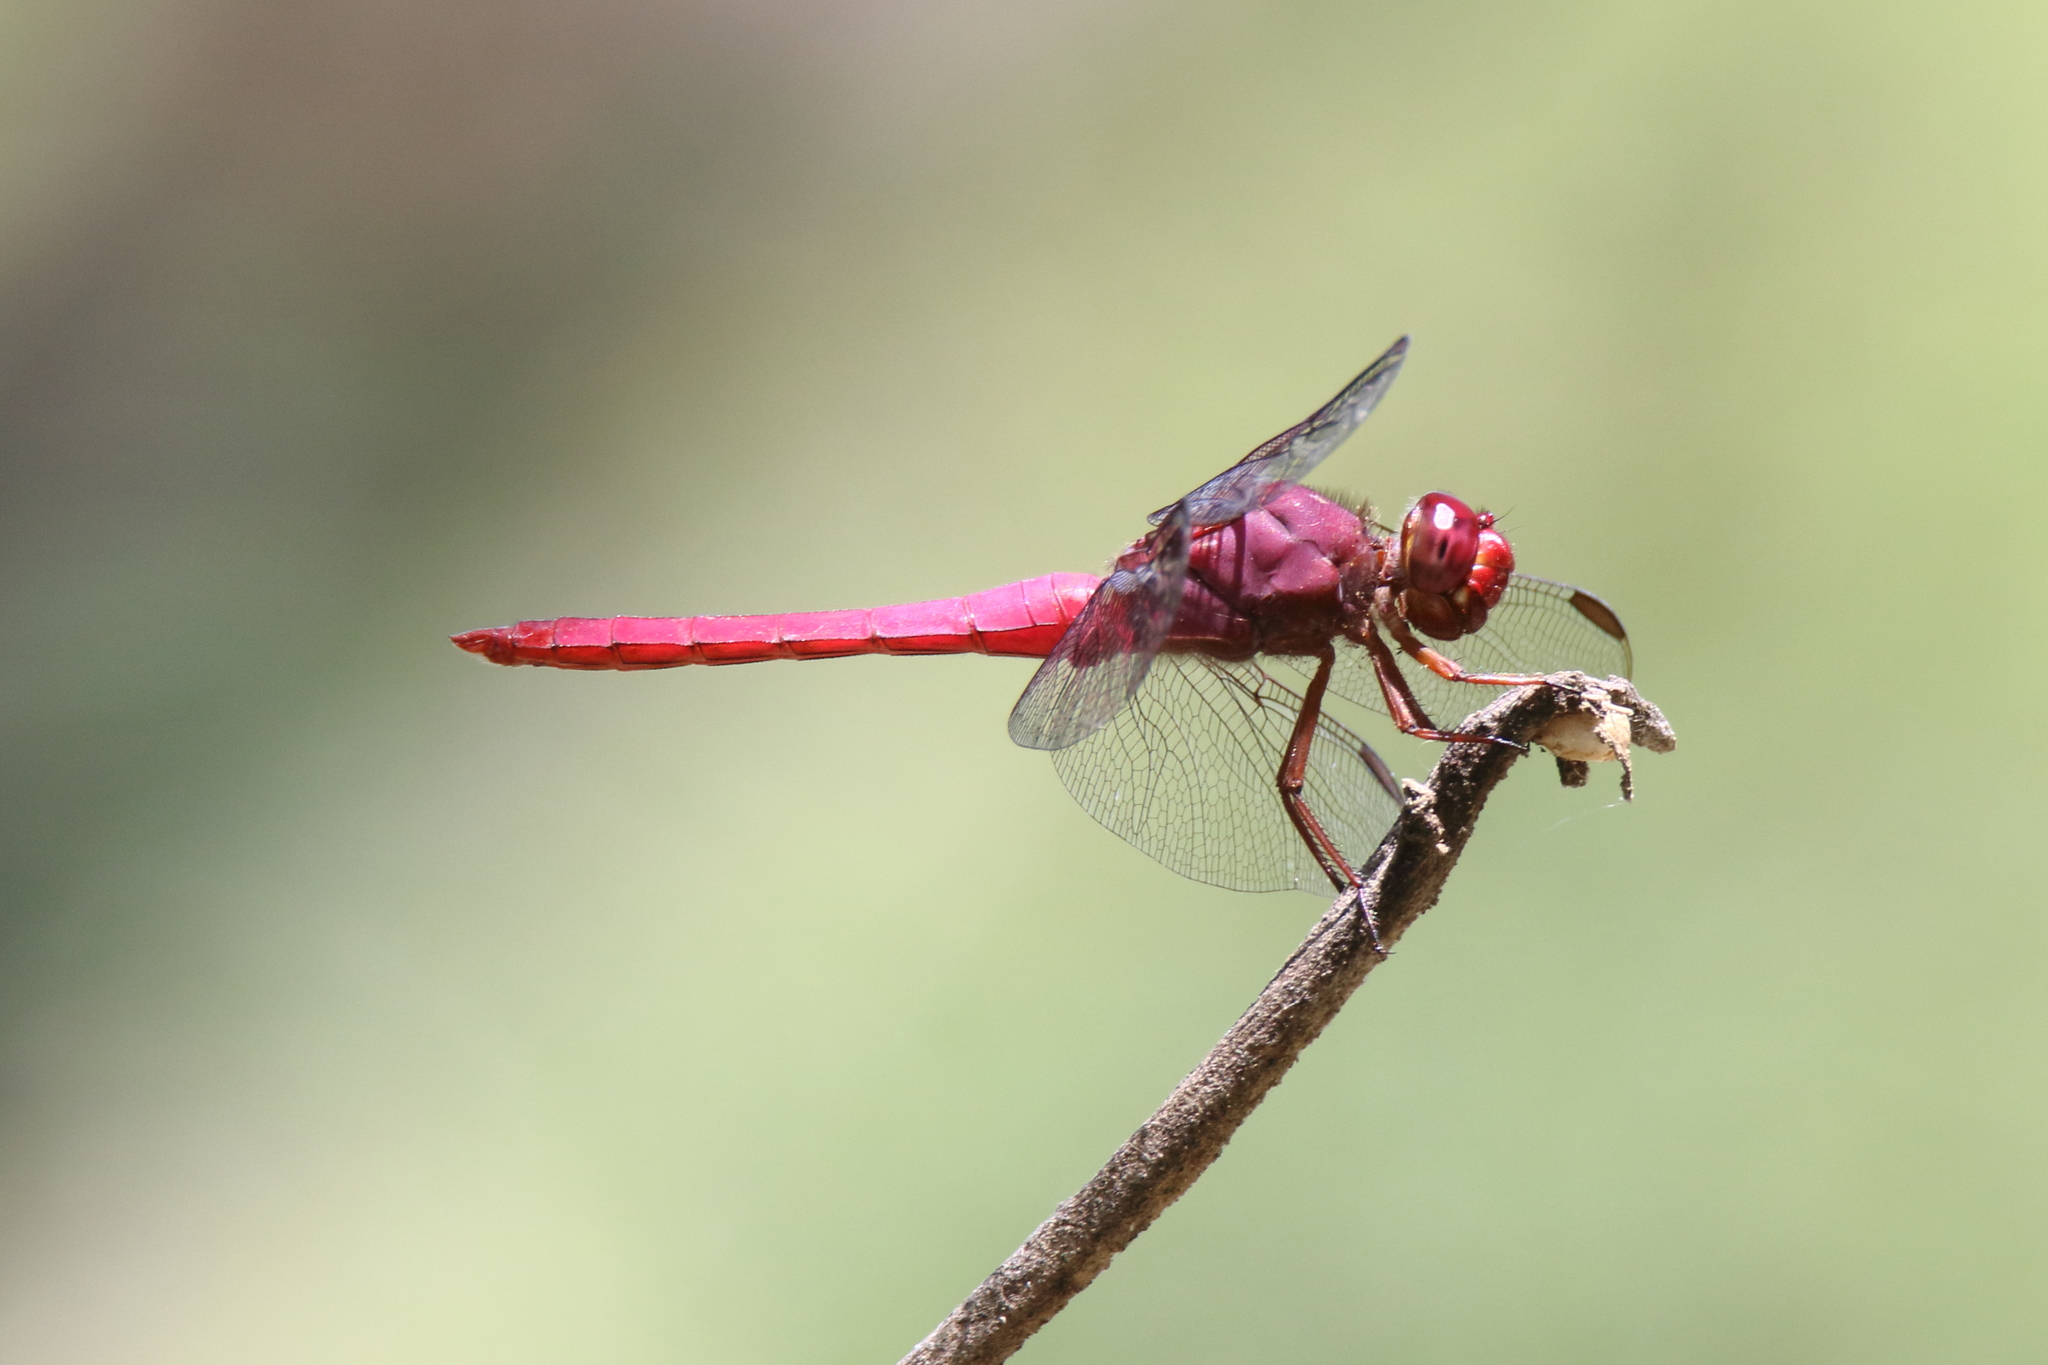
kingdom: Animalia
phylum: Arthropoda
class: Insecta
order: Odonata
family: Libellulidae
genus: Orthemis
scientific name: Orthemis discolor
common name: Carmine skimmer
